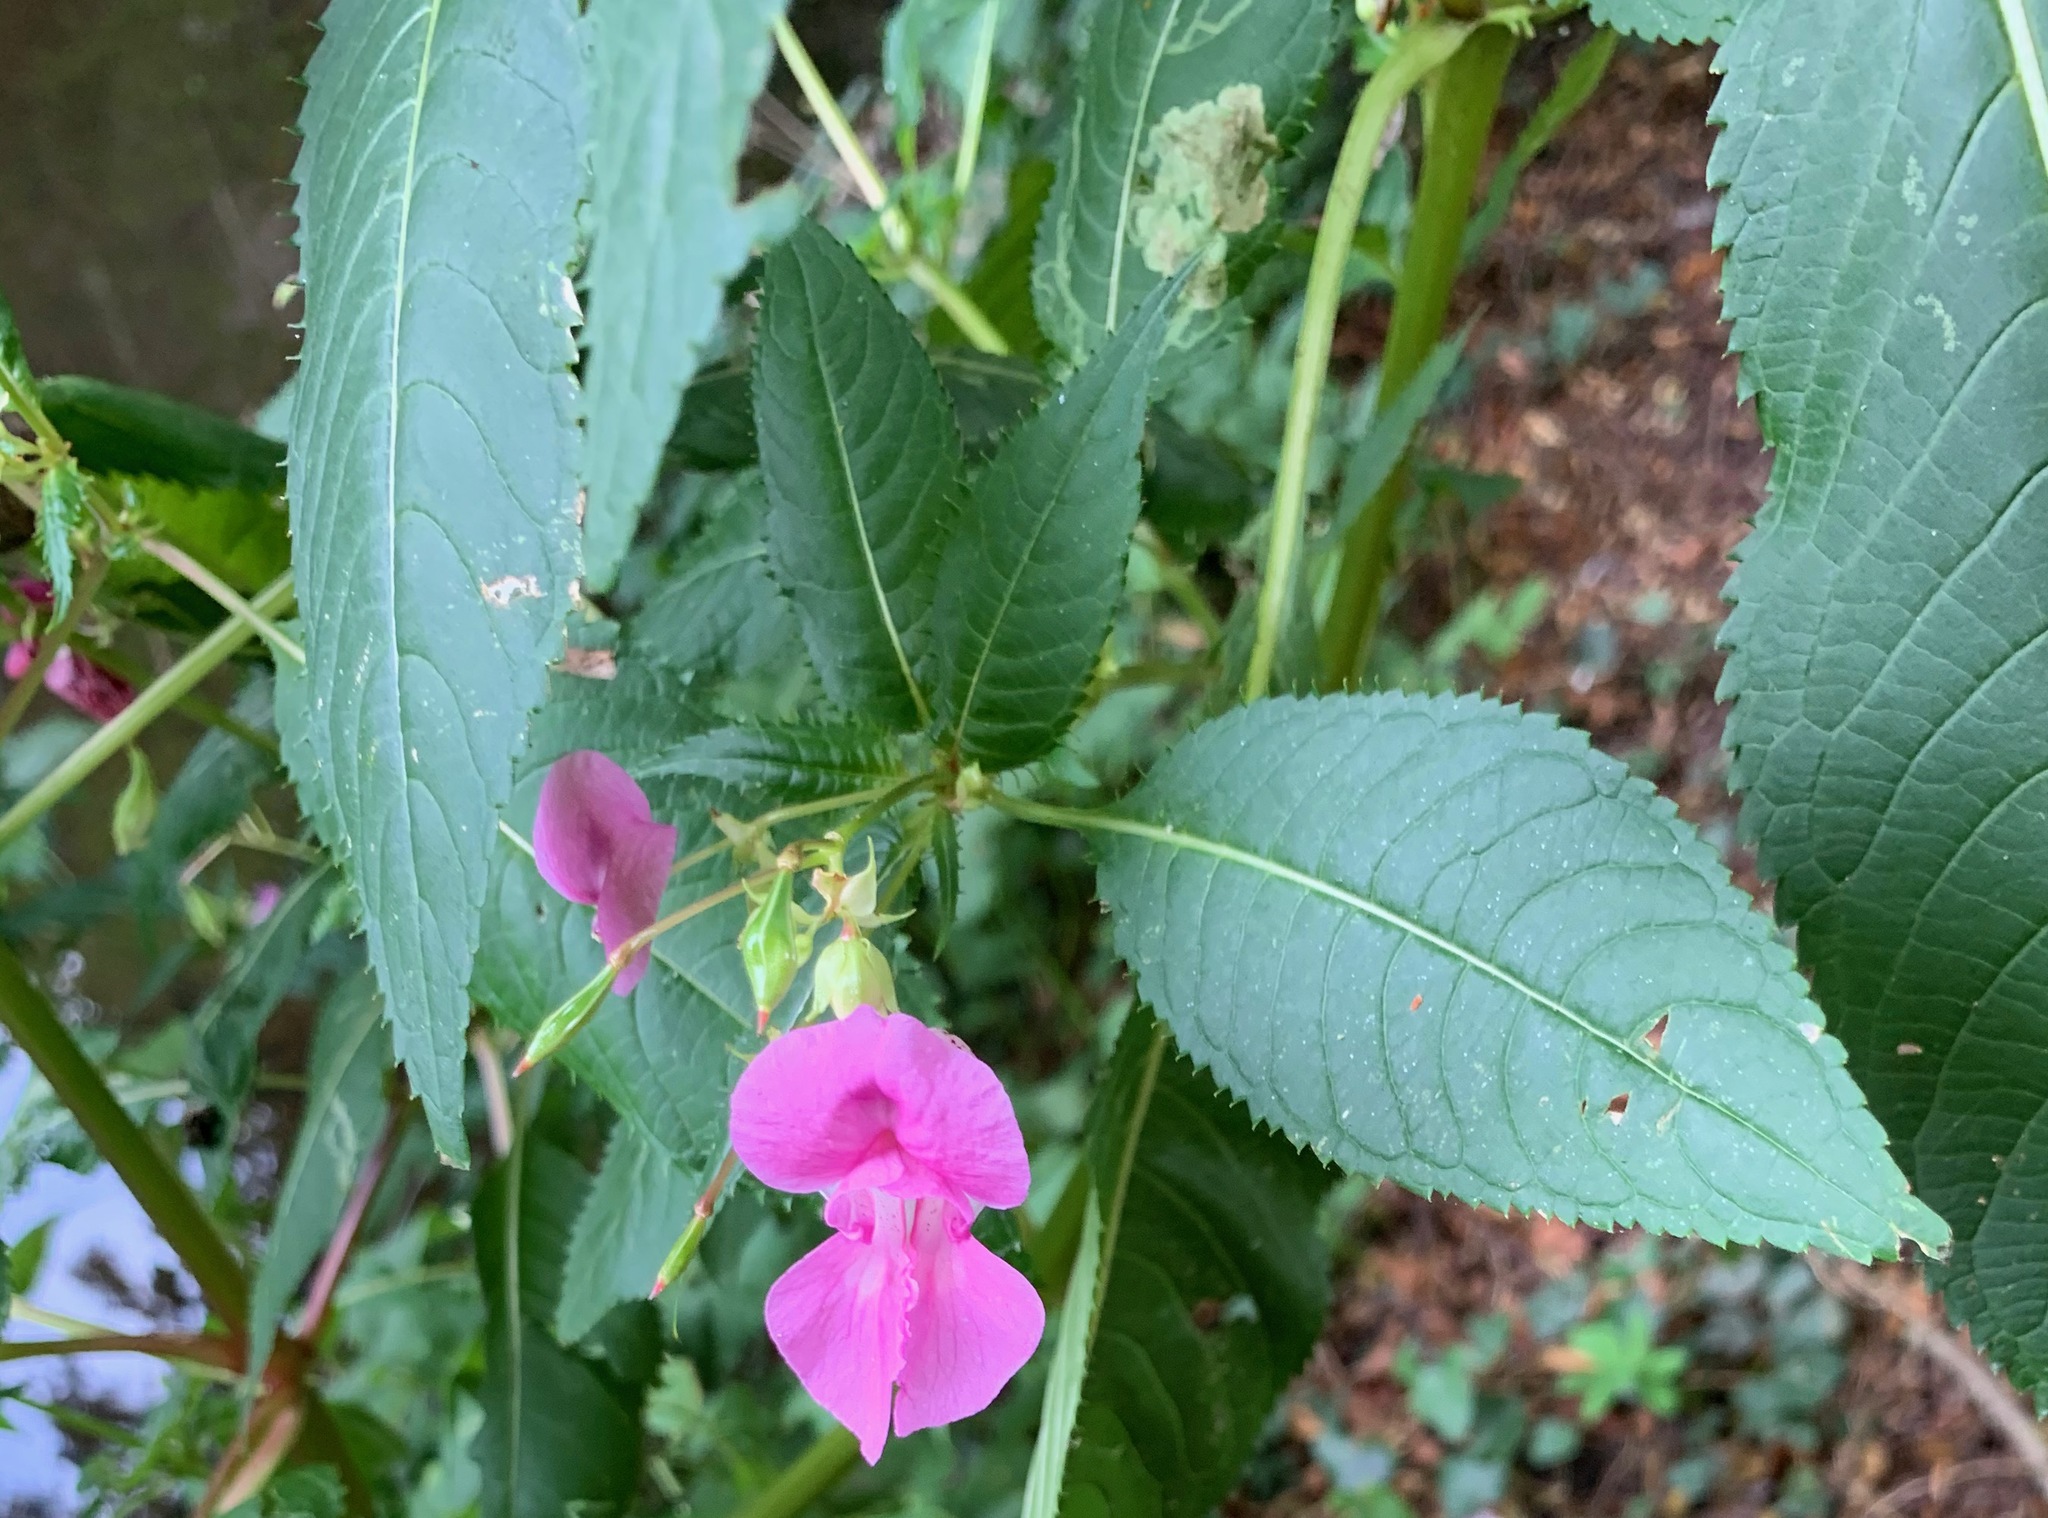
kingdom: Plantae
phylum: Tracheophyta
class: Magnoliopsida
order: Ericales
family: Balsaminaceae
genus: Impatiens
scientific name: Impatiens glandulifera
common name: Himalayan balsam
